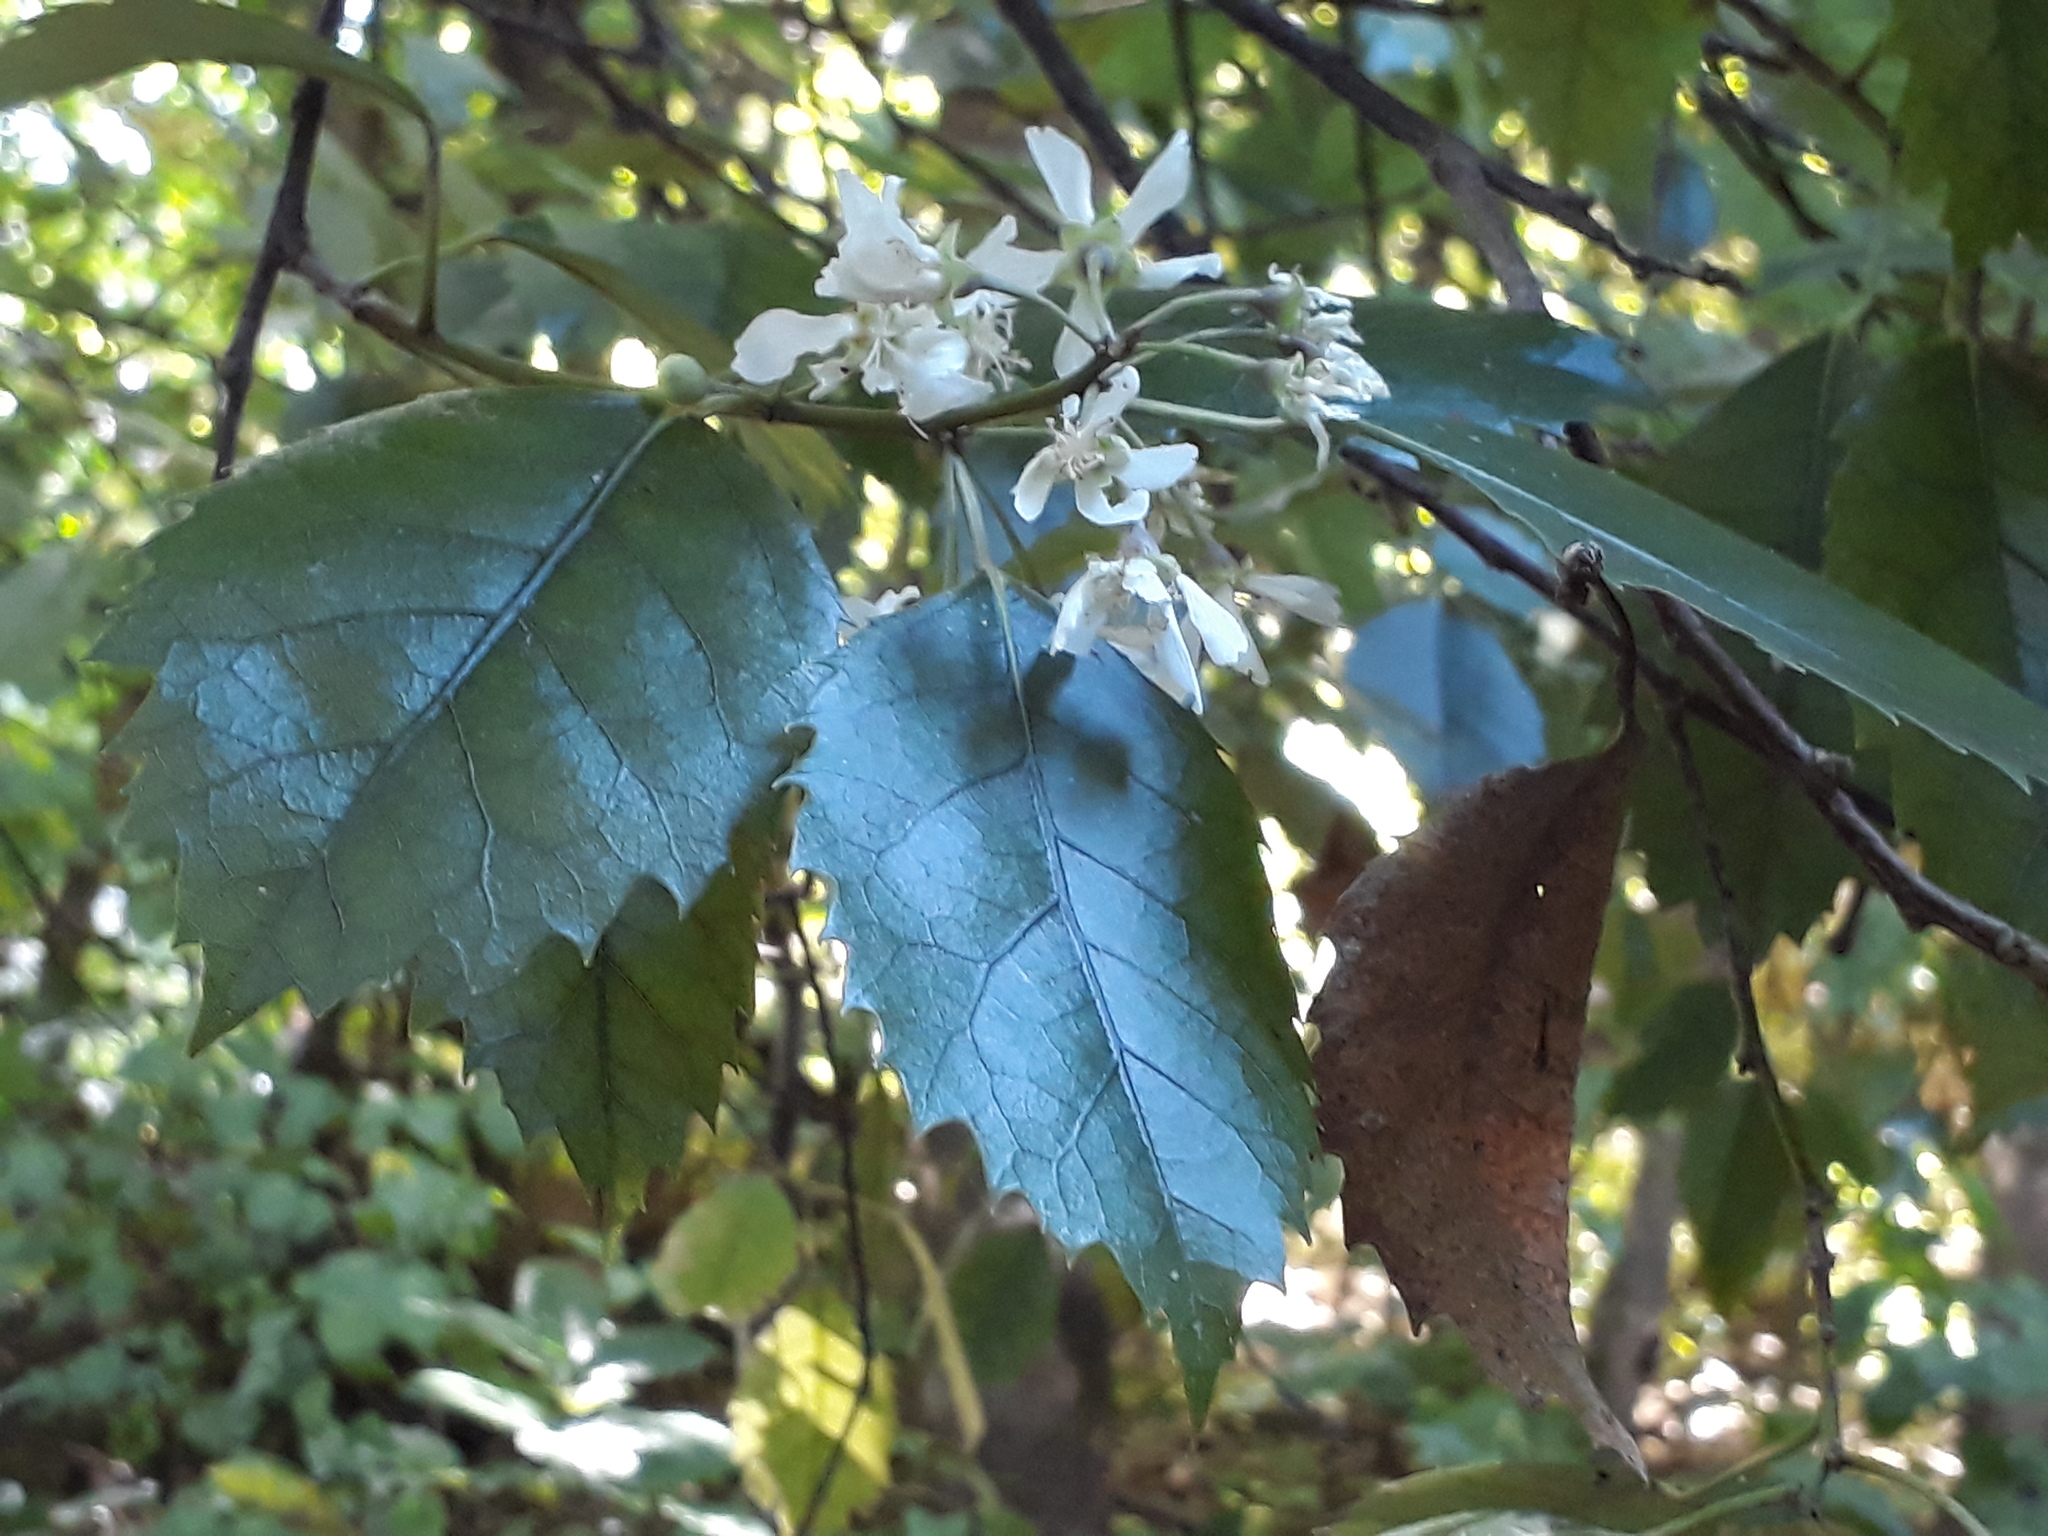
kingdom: Plantae
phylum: Tracheophyta
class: Magnoliopsida
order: Malvales
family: Malvaceae
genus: Hoheria
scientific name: Hoheria populnea
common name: Lacebark
